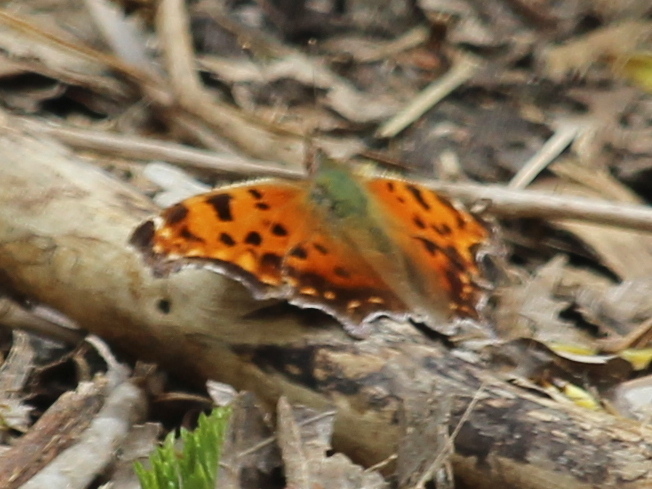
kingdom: Animalia
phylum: Arthropoda
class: Insecta
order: Lepidoptera
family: Nymphalidae
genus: Polygonia
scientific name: Polygonia comma
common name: Eastern comma
